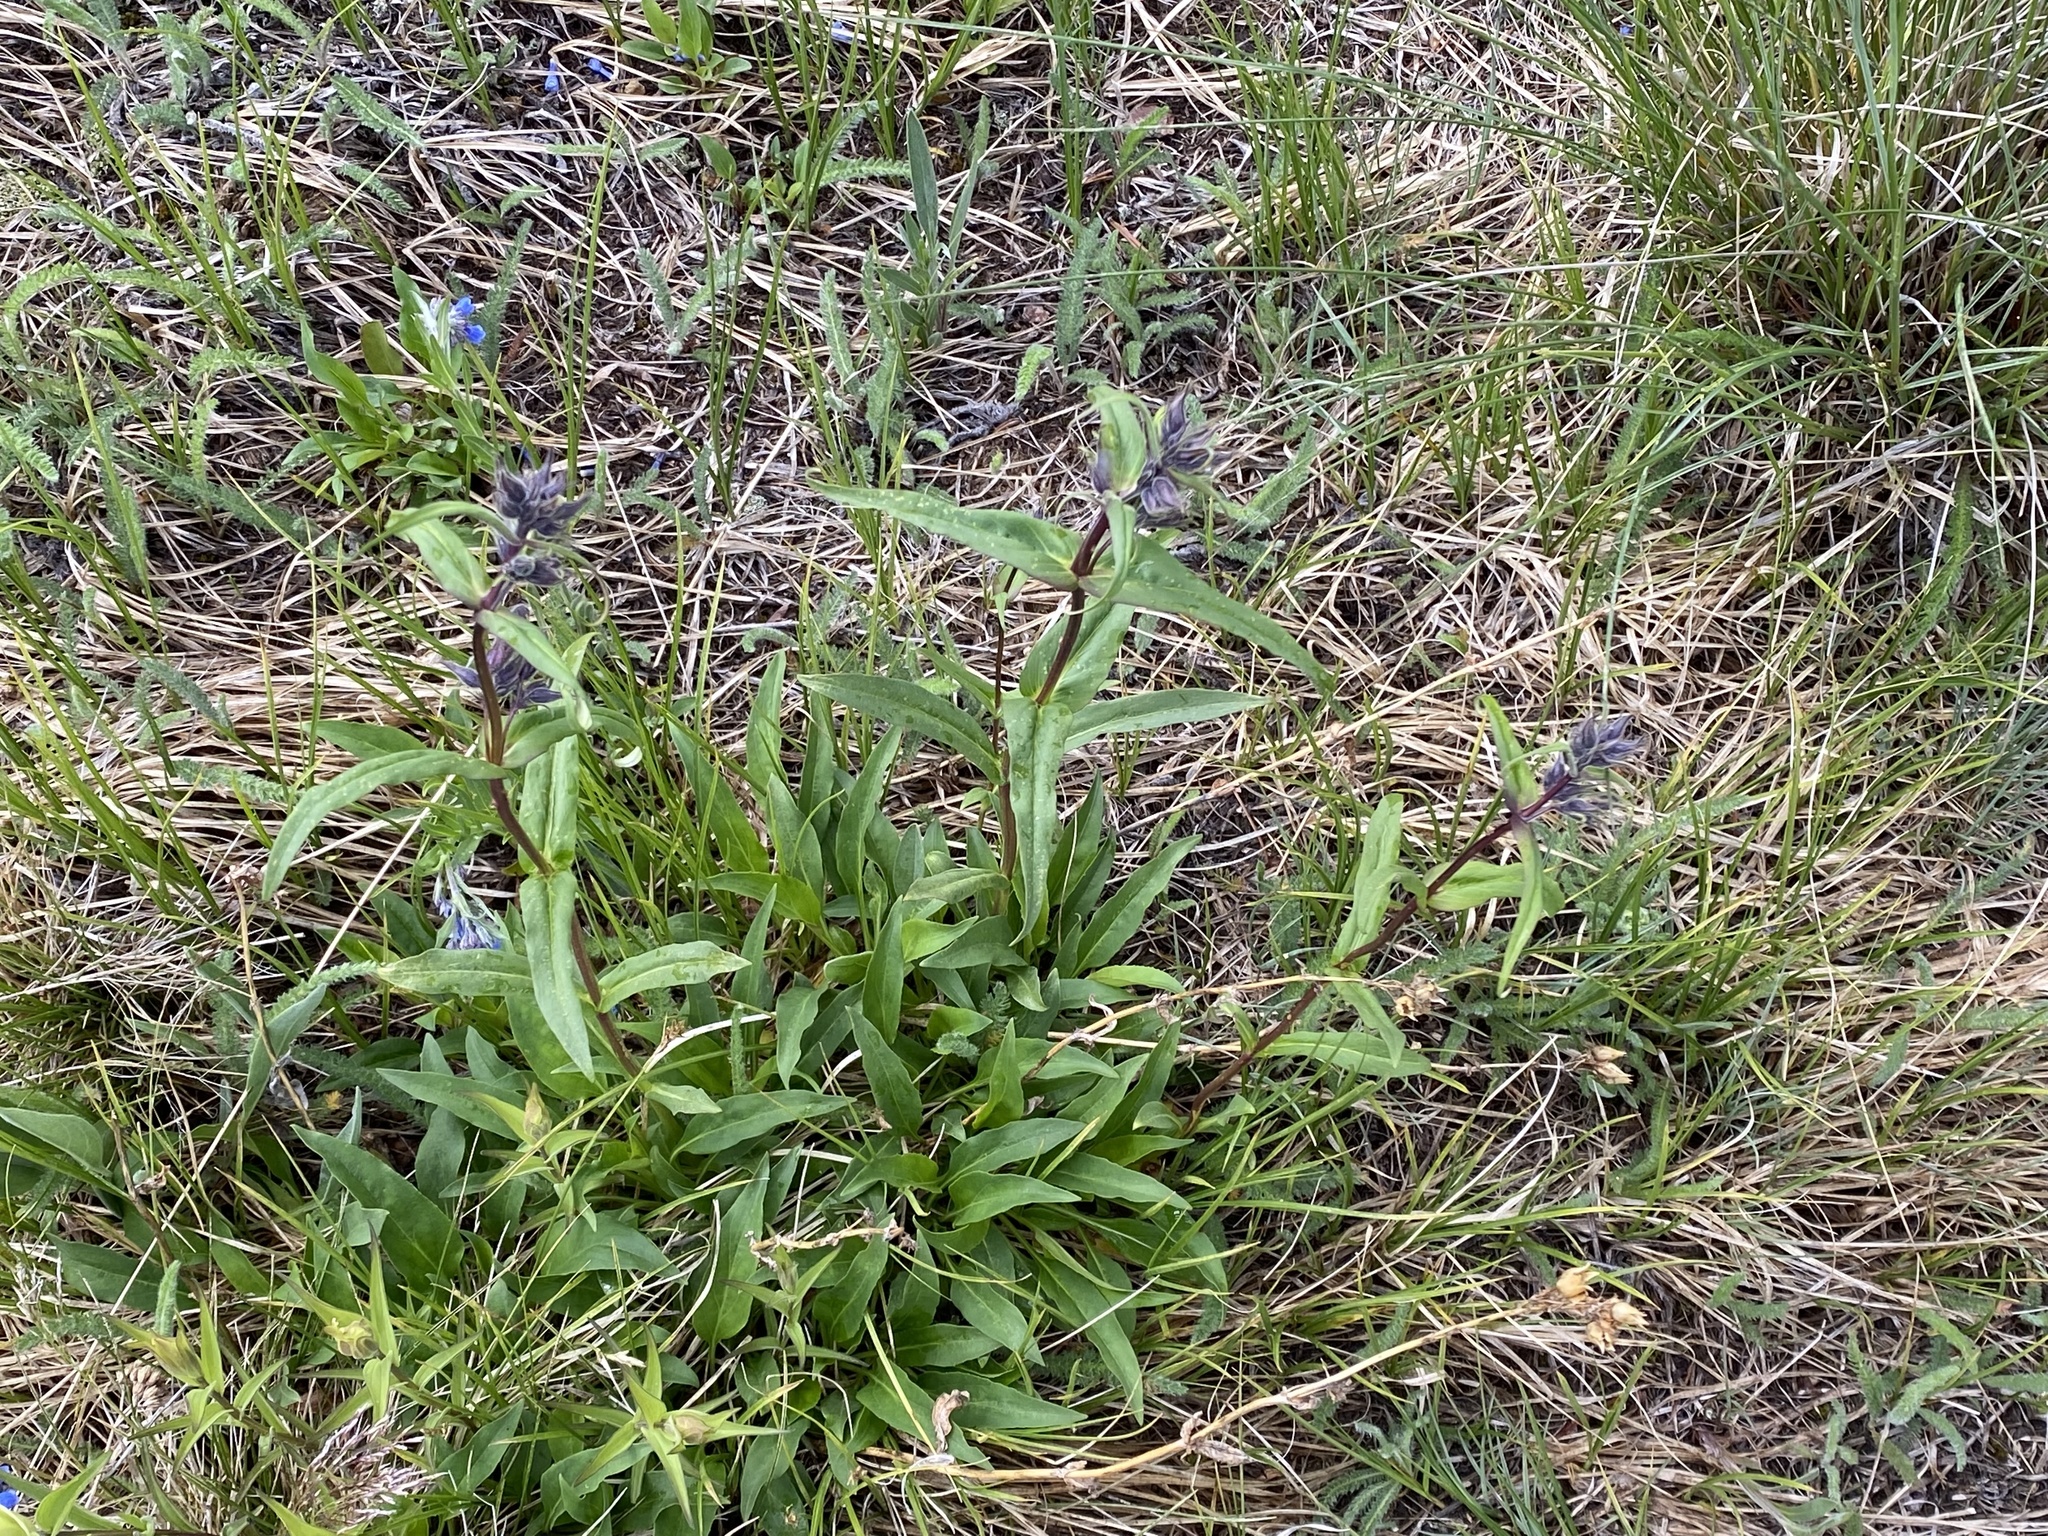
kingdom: Plantae
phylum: Tracheophyta
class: Magnoliopsida
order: Lamiales
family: Plantaginaceae
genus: Penstemon
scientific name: Penstemon whippleanus
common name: Whipple's penstemon
